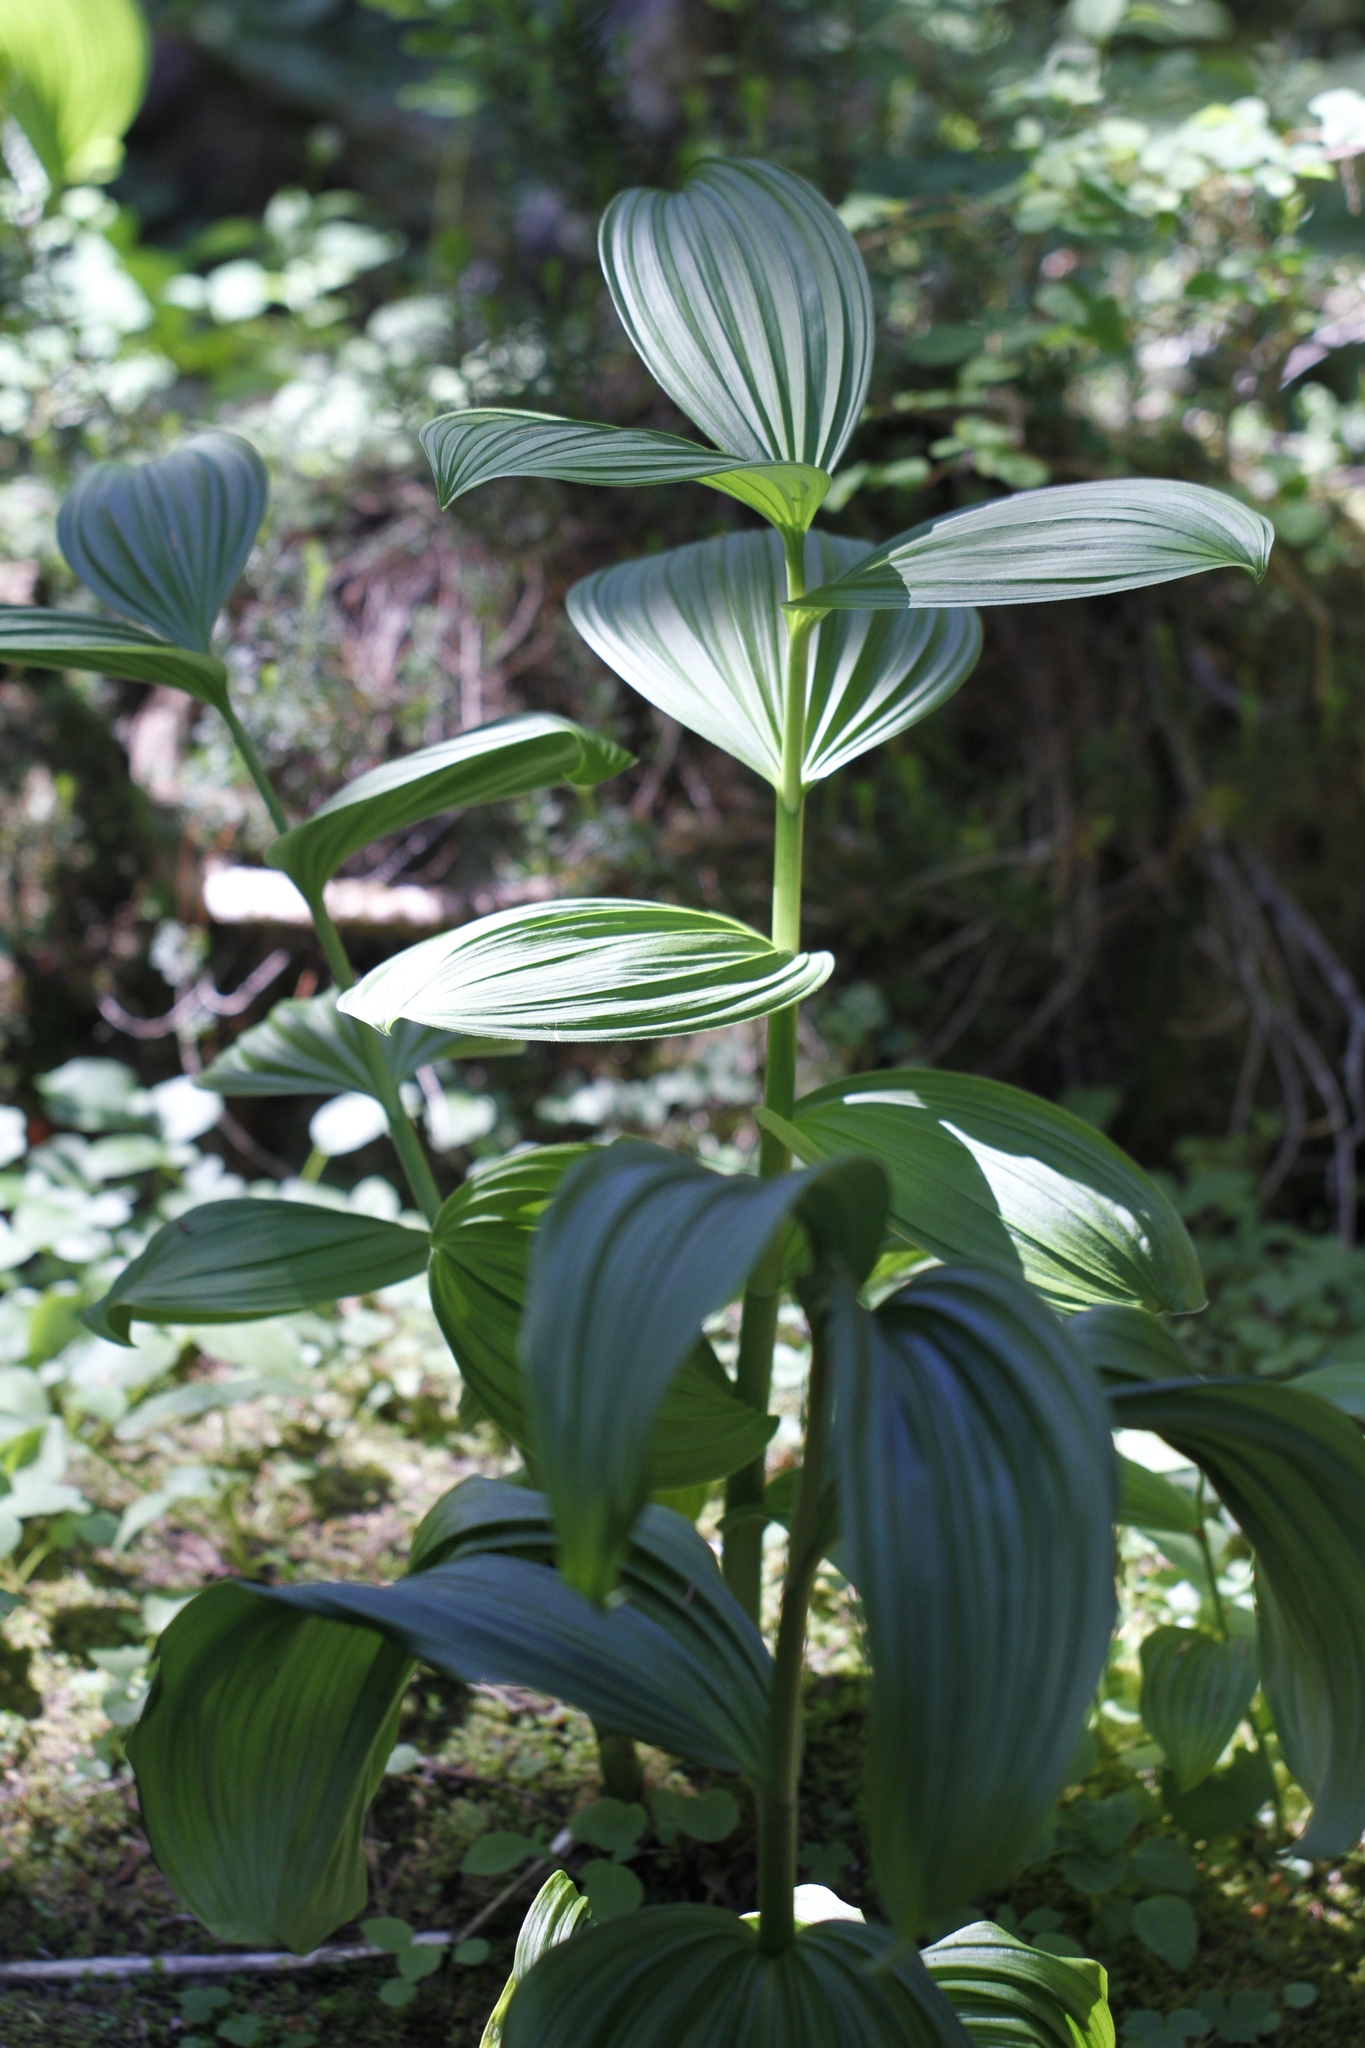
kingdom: Plantae
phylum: Tracheophyta
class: Liliopsida
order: Liliales
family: Melanthiaceae
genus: Veratrum
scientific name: Veratrum viride
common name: American false hellebore
